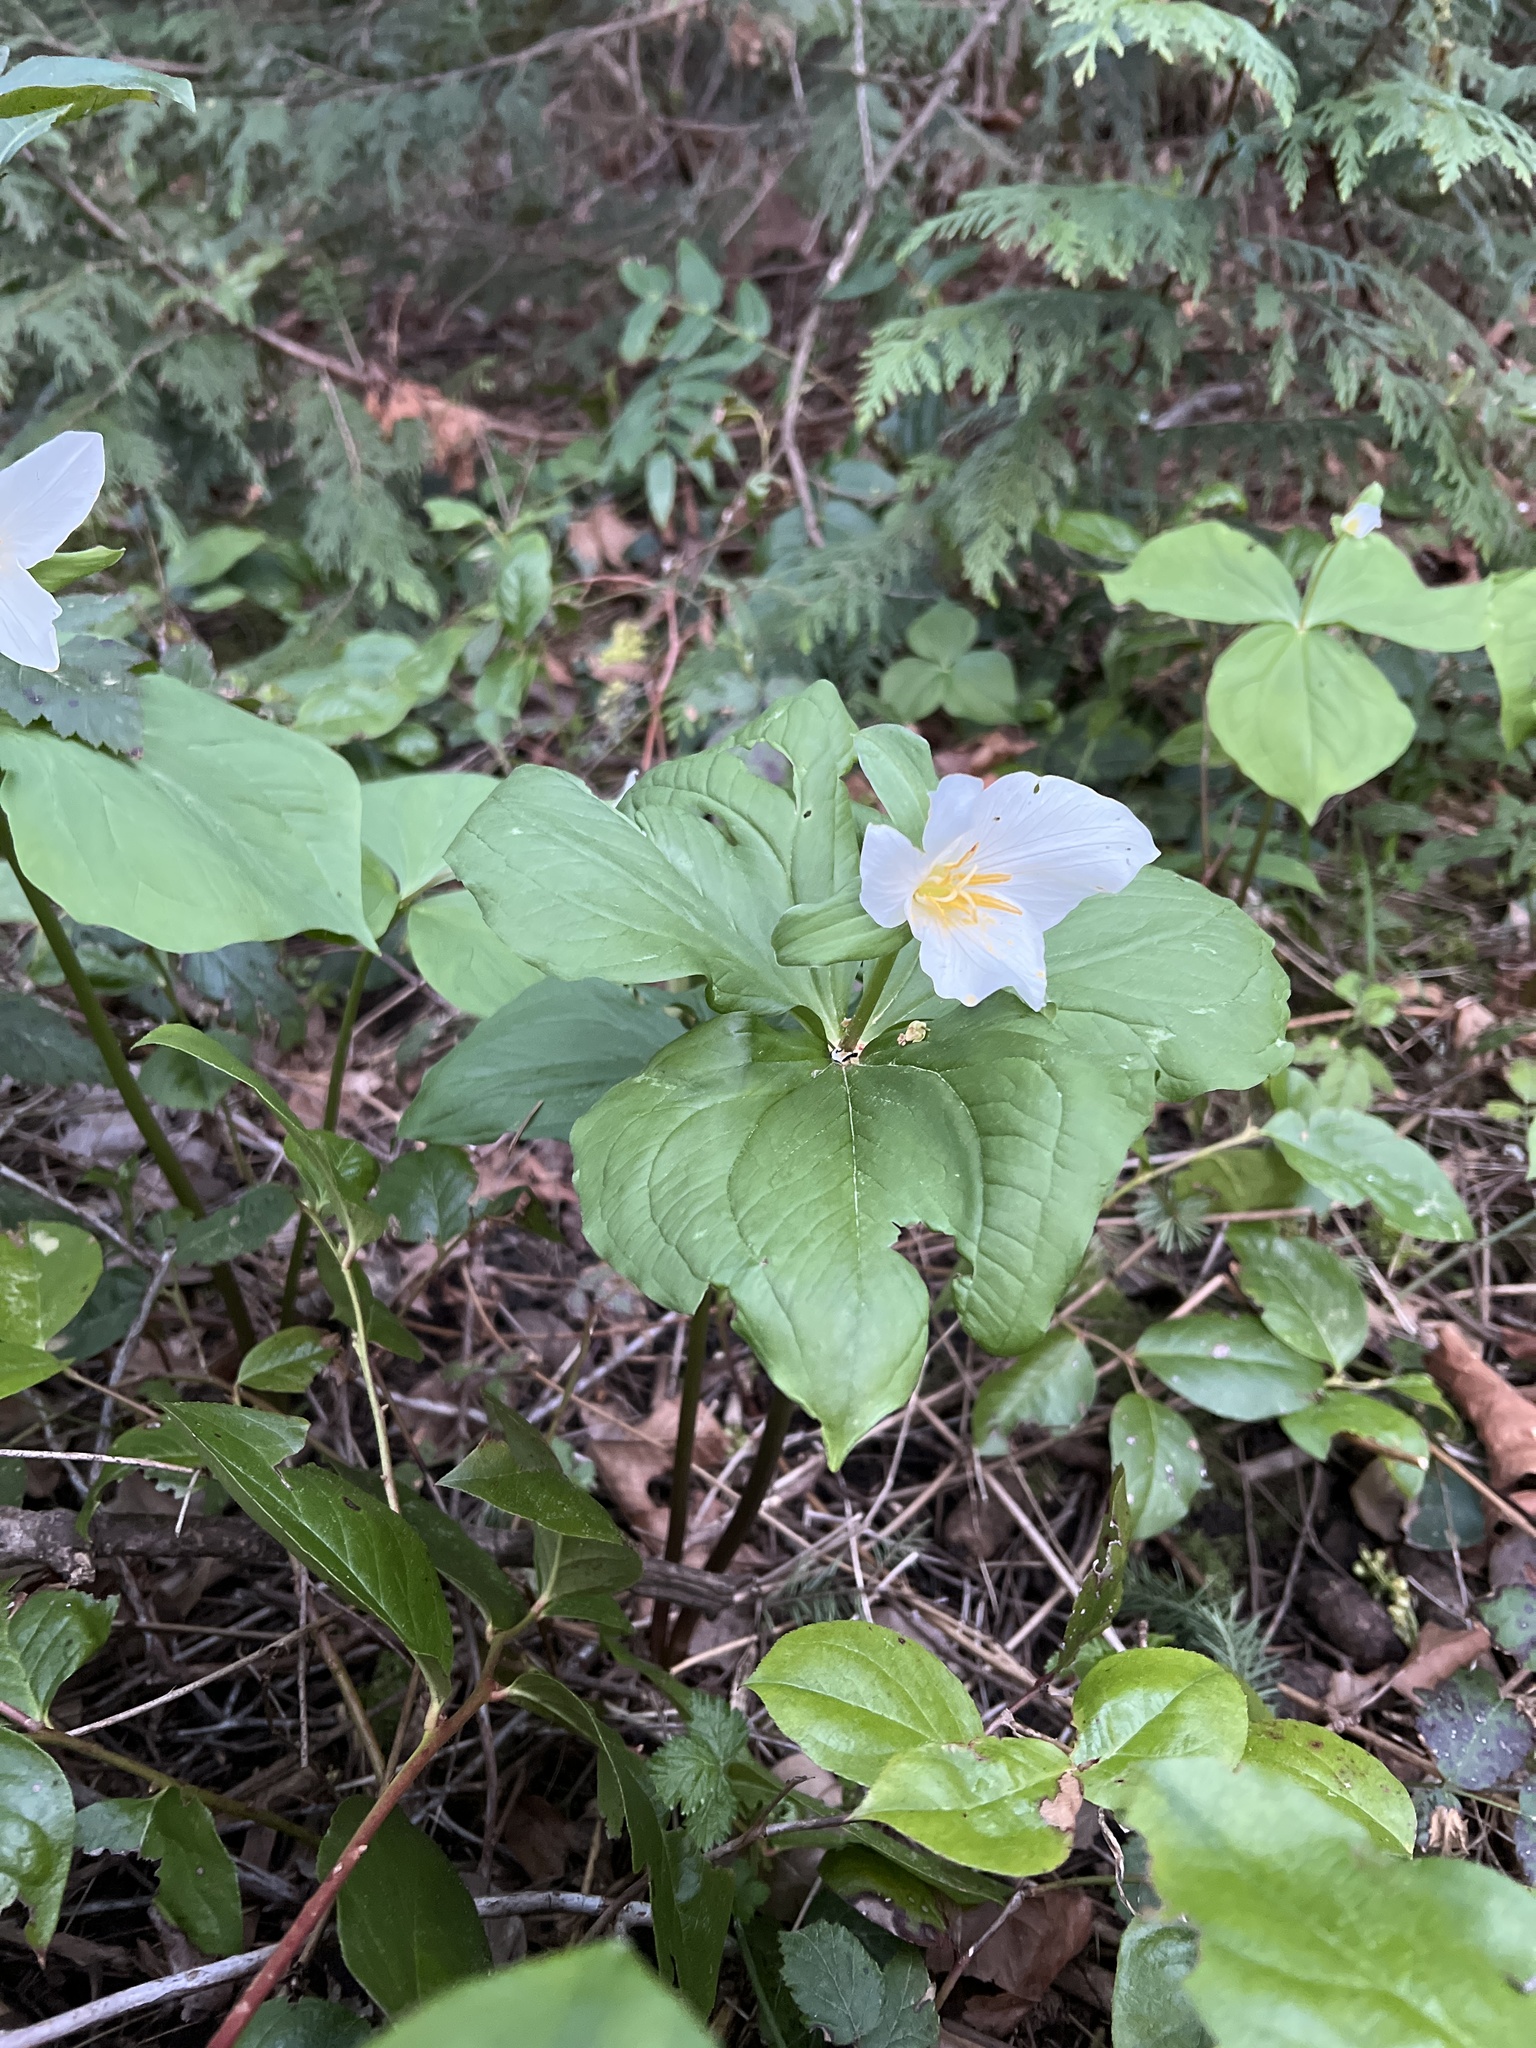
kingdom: Plantae
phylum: Tracheophyta
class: Liliopsida
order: Liliales
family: Melanthiaceae
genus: Trillium
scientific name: Trillium ovatum
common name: Pacific trillium
